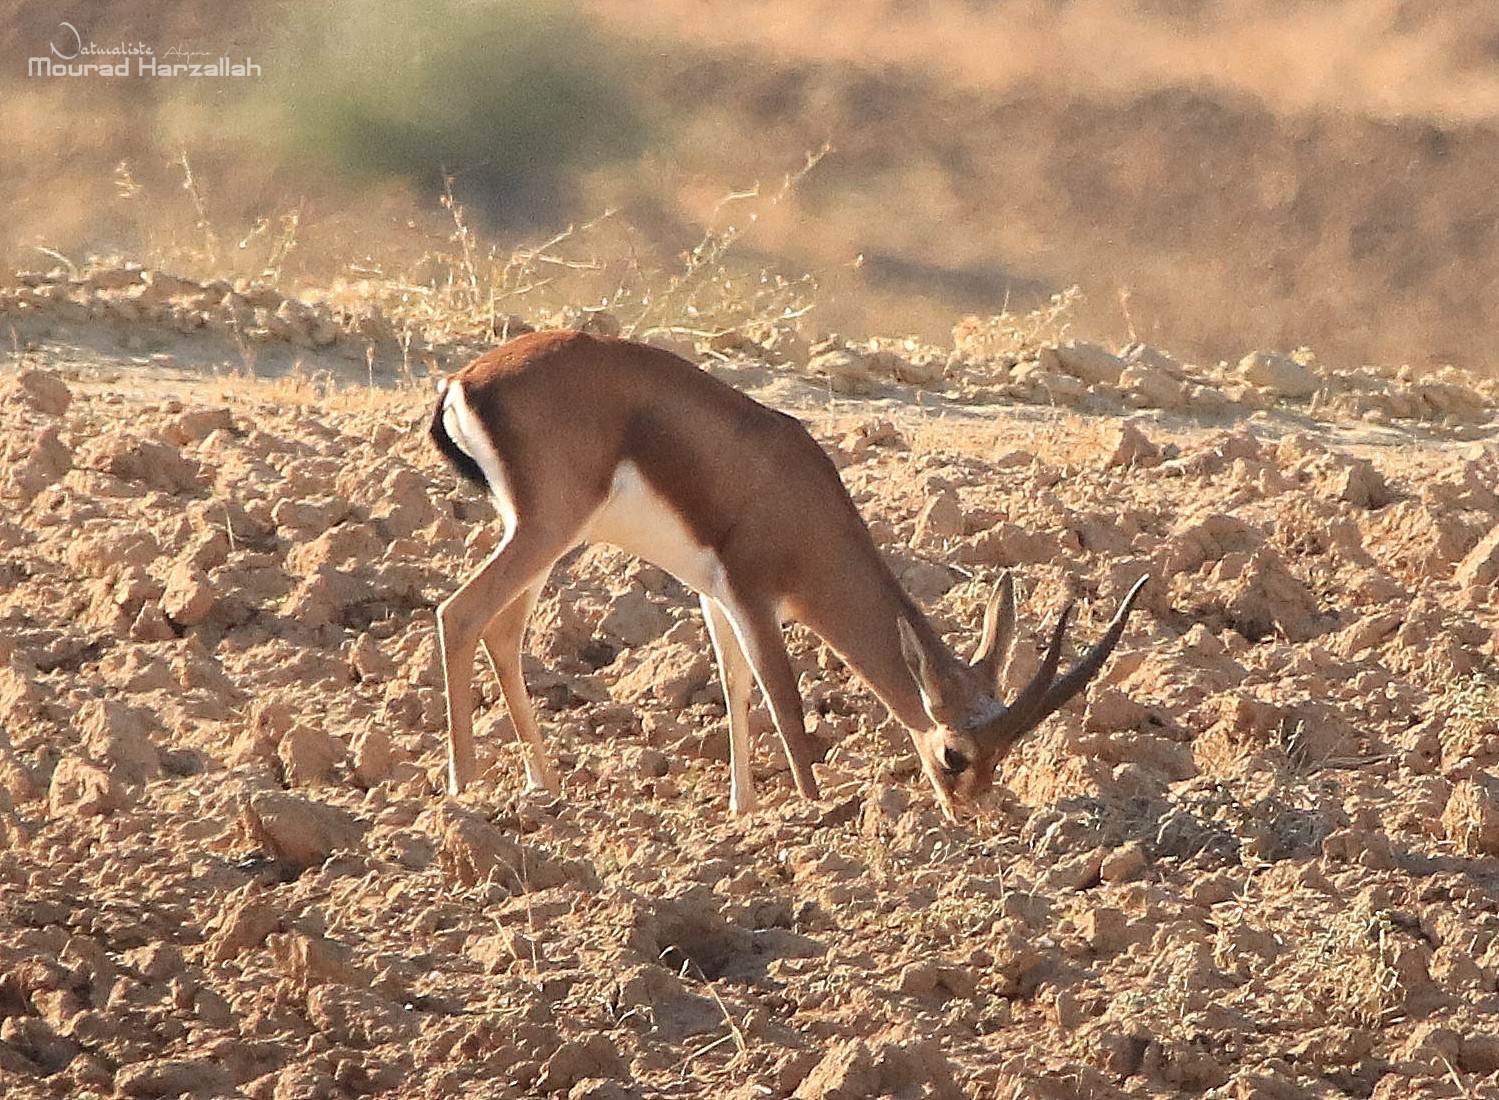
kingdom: Animalia
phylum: Chordata
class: Mammalia
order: Artiodactyla
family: Bovidae
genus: Gazella
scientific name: Gazella cuvieri
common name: Cuvier's gazelle
